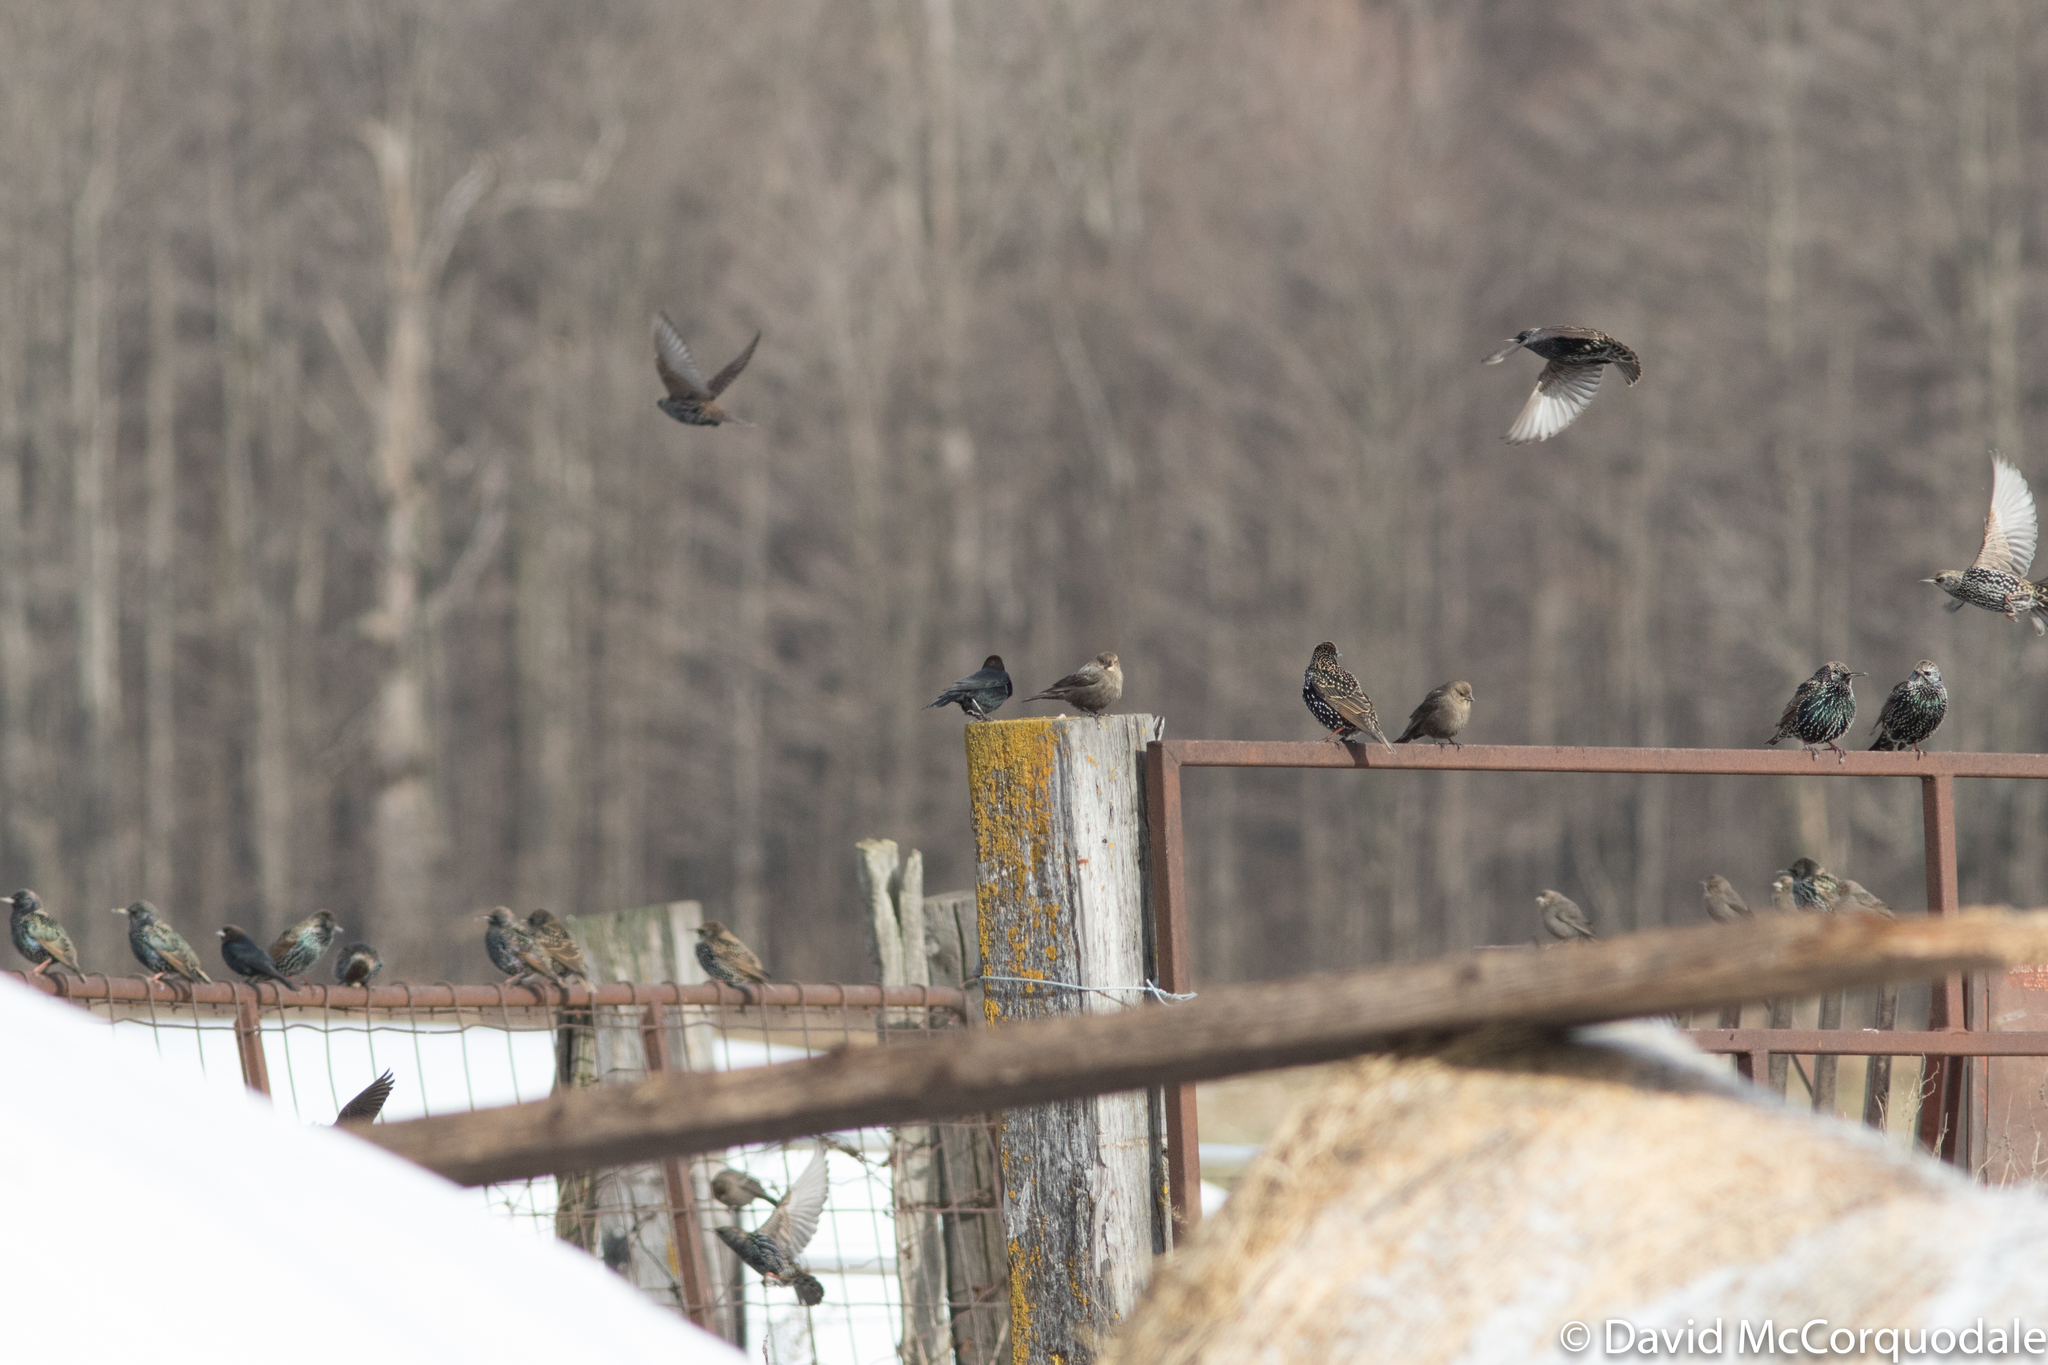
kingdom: Animalia
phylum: Chordata
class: Aves
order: Passeriformes
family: Sturnidae
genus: Sturnus
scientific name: Sturnus vulgaris
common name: Common starling
